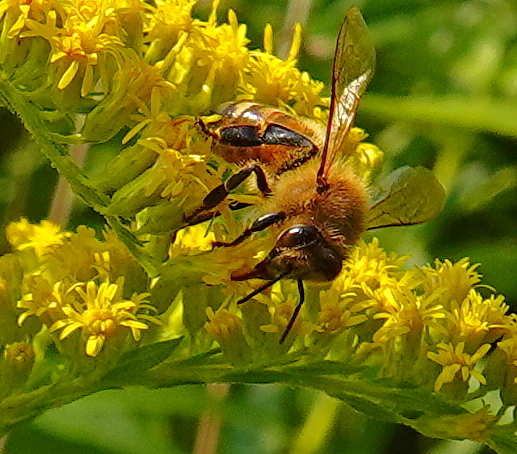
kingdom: Animalia
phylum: Arthropoda
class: Insecta
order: Hymenoptera
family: Apidae
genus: Apis
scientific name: Apis mellifera
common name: Honey bee
